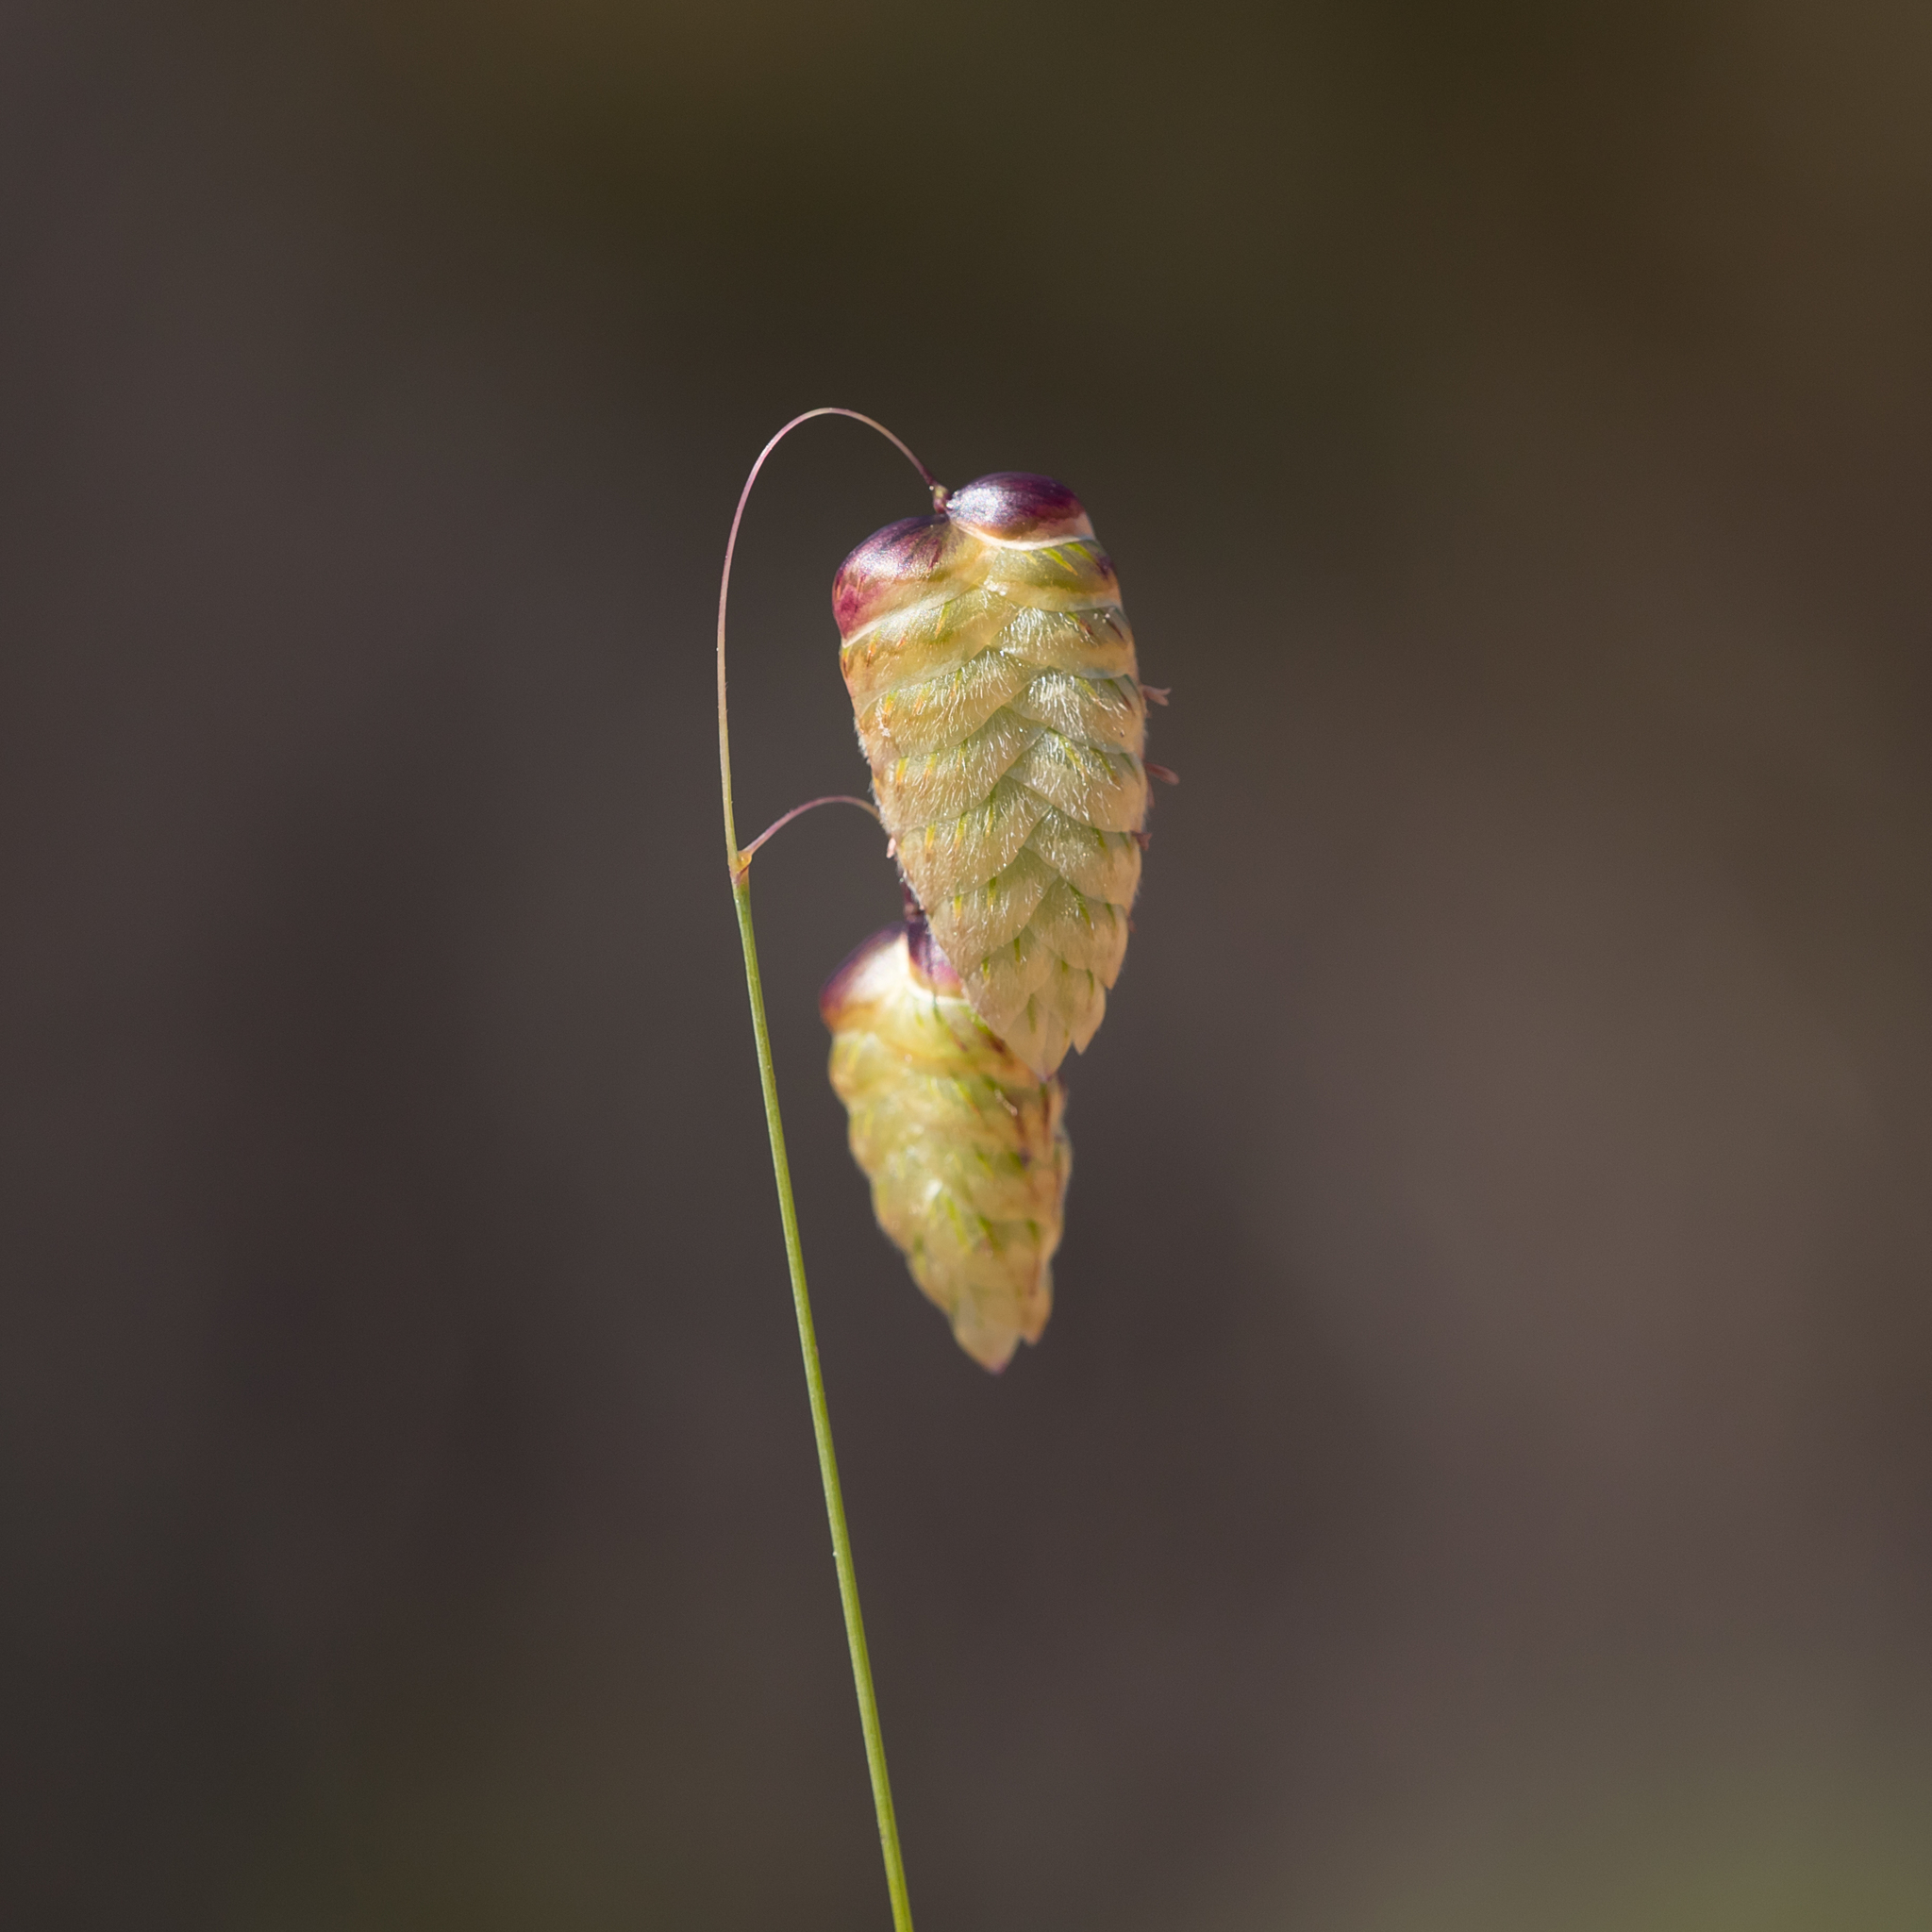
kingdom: Plantae
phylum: Tracheophyta
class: Liliopsida
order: Poales
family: Poaceae
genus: Briza
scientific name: Briza maxima
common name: Big quakinggrass
